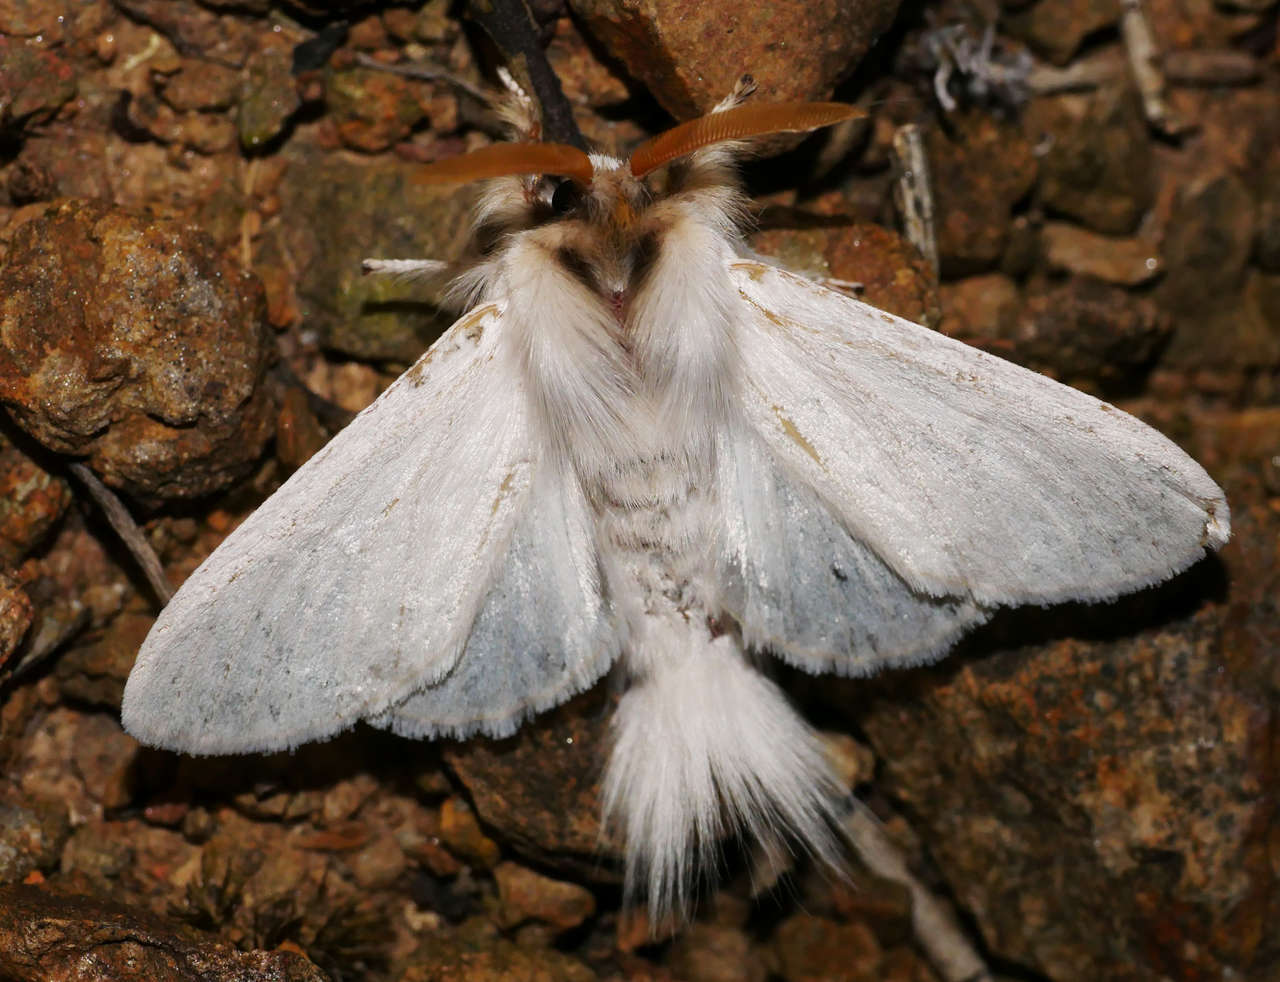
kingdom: Animalia
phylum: Arthropoda
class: Insecta
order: Lepidoptera
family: Notodontidae
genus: Trichiocercus
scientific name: Trichiocercus sparshalli
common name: Long-tailed satin
